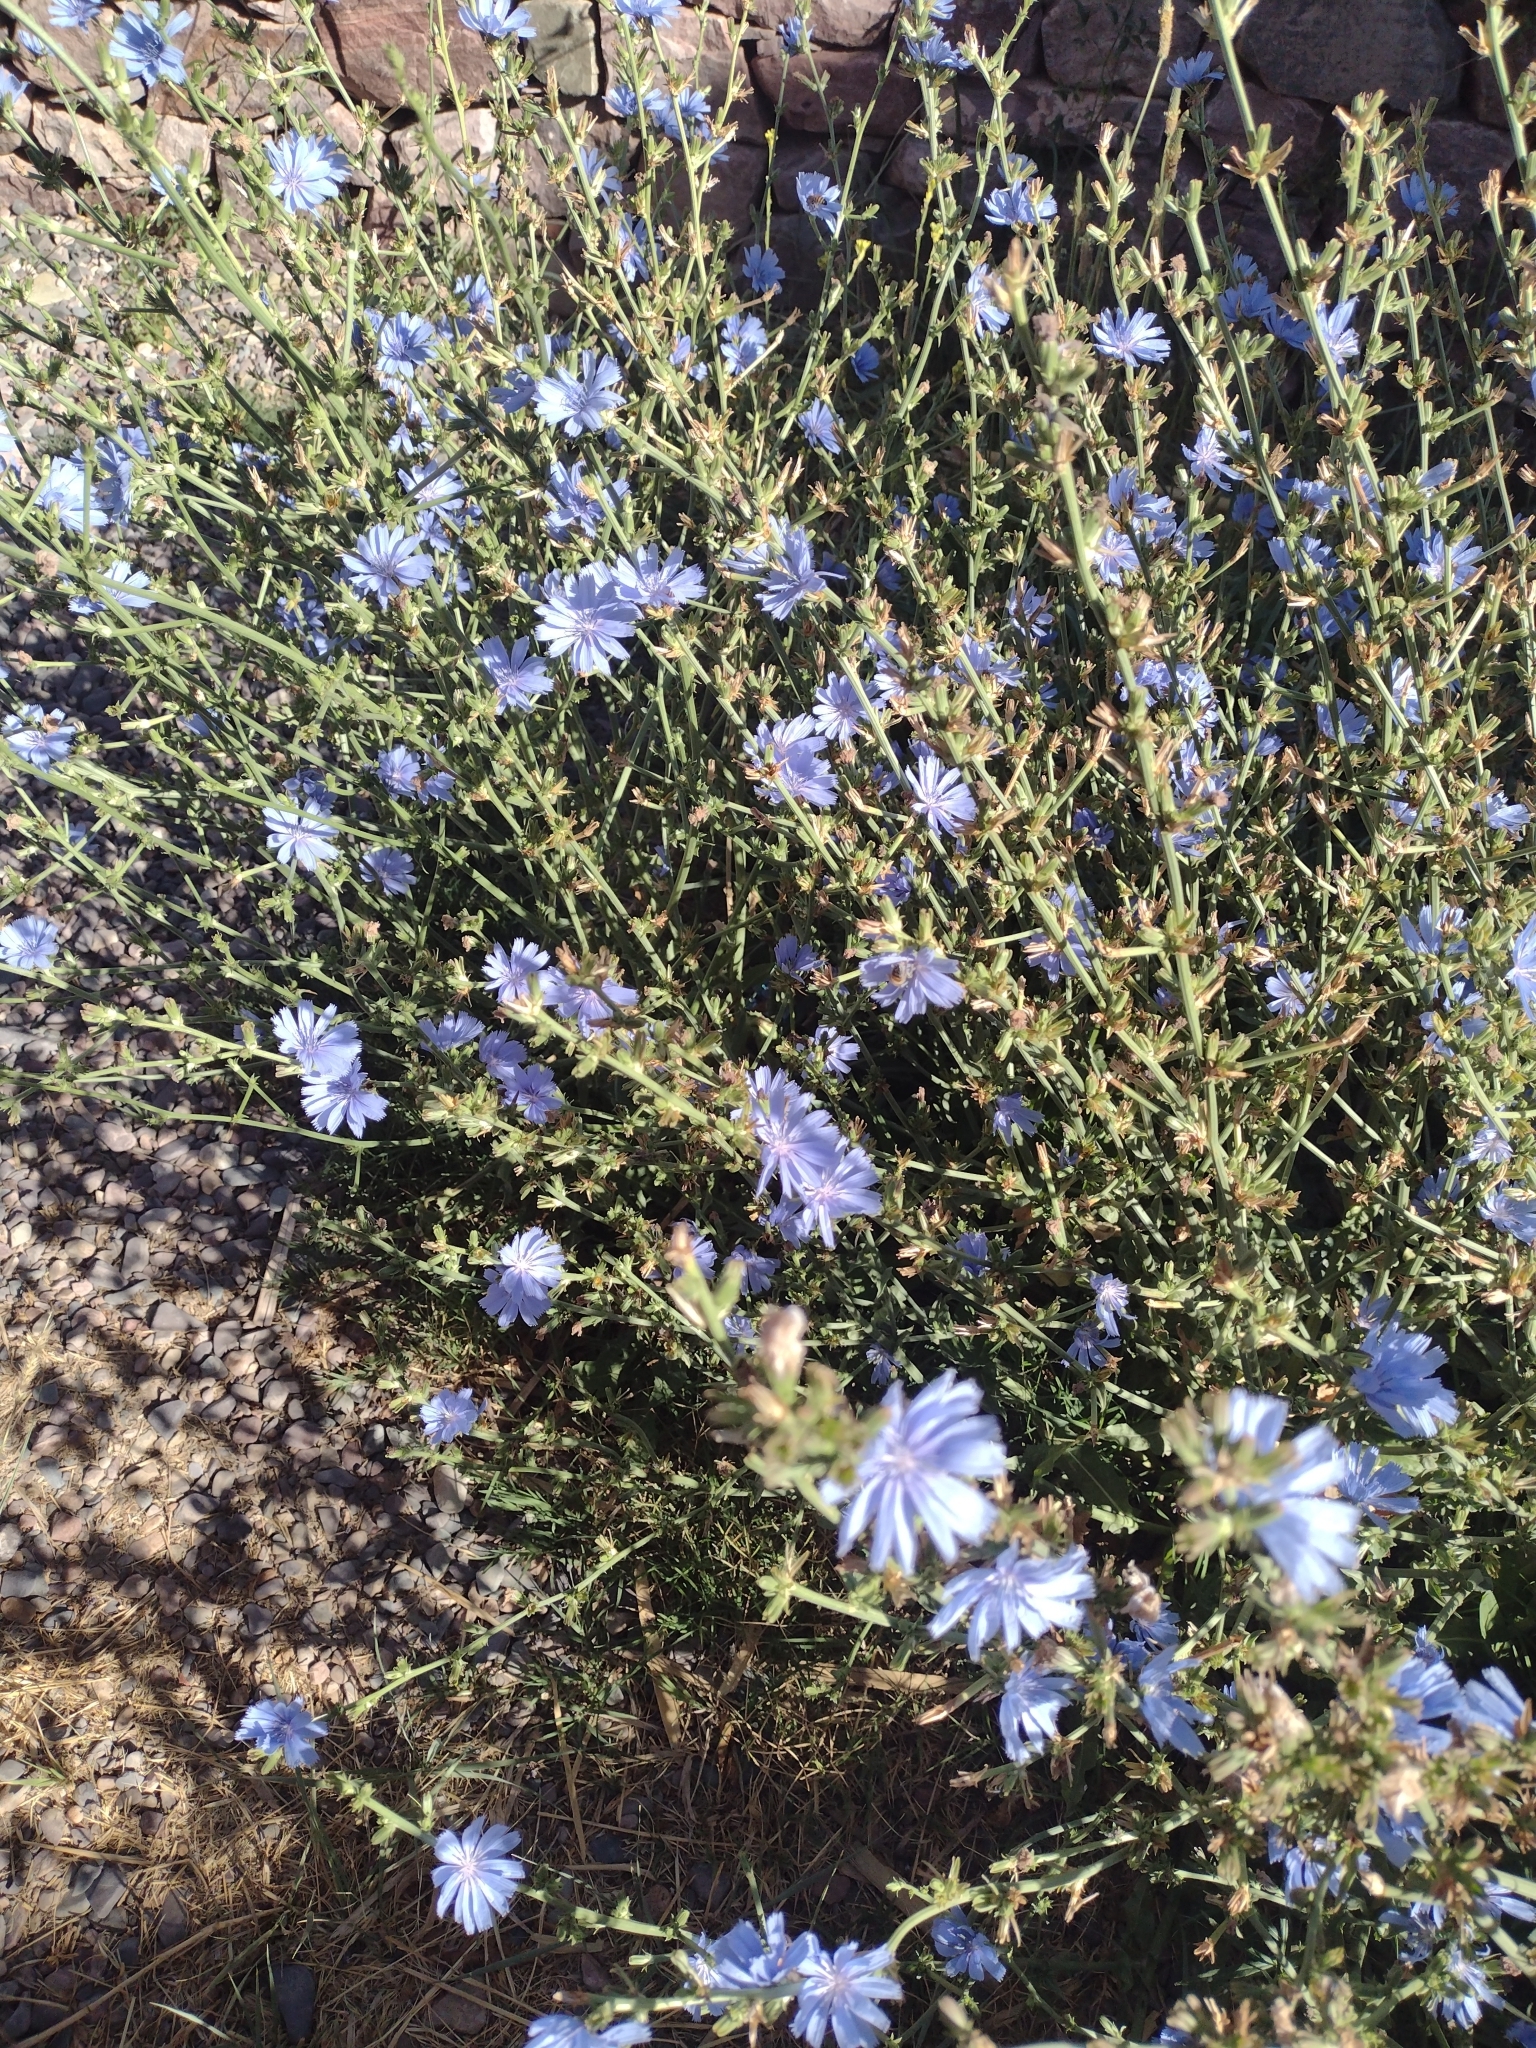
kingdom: Plantae
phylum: Tracheophyta
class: Magnoliopsida
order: Asterales
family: Asteraceae
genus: Cichorium
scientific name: Cichorium intybus
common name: Chicory
